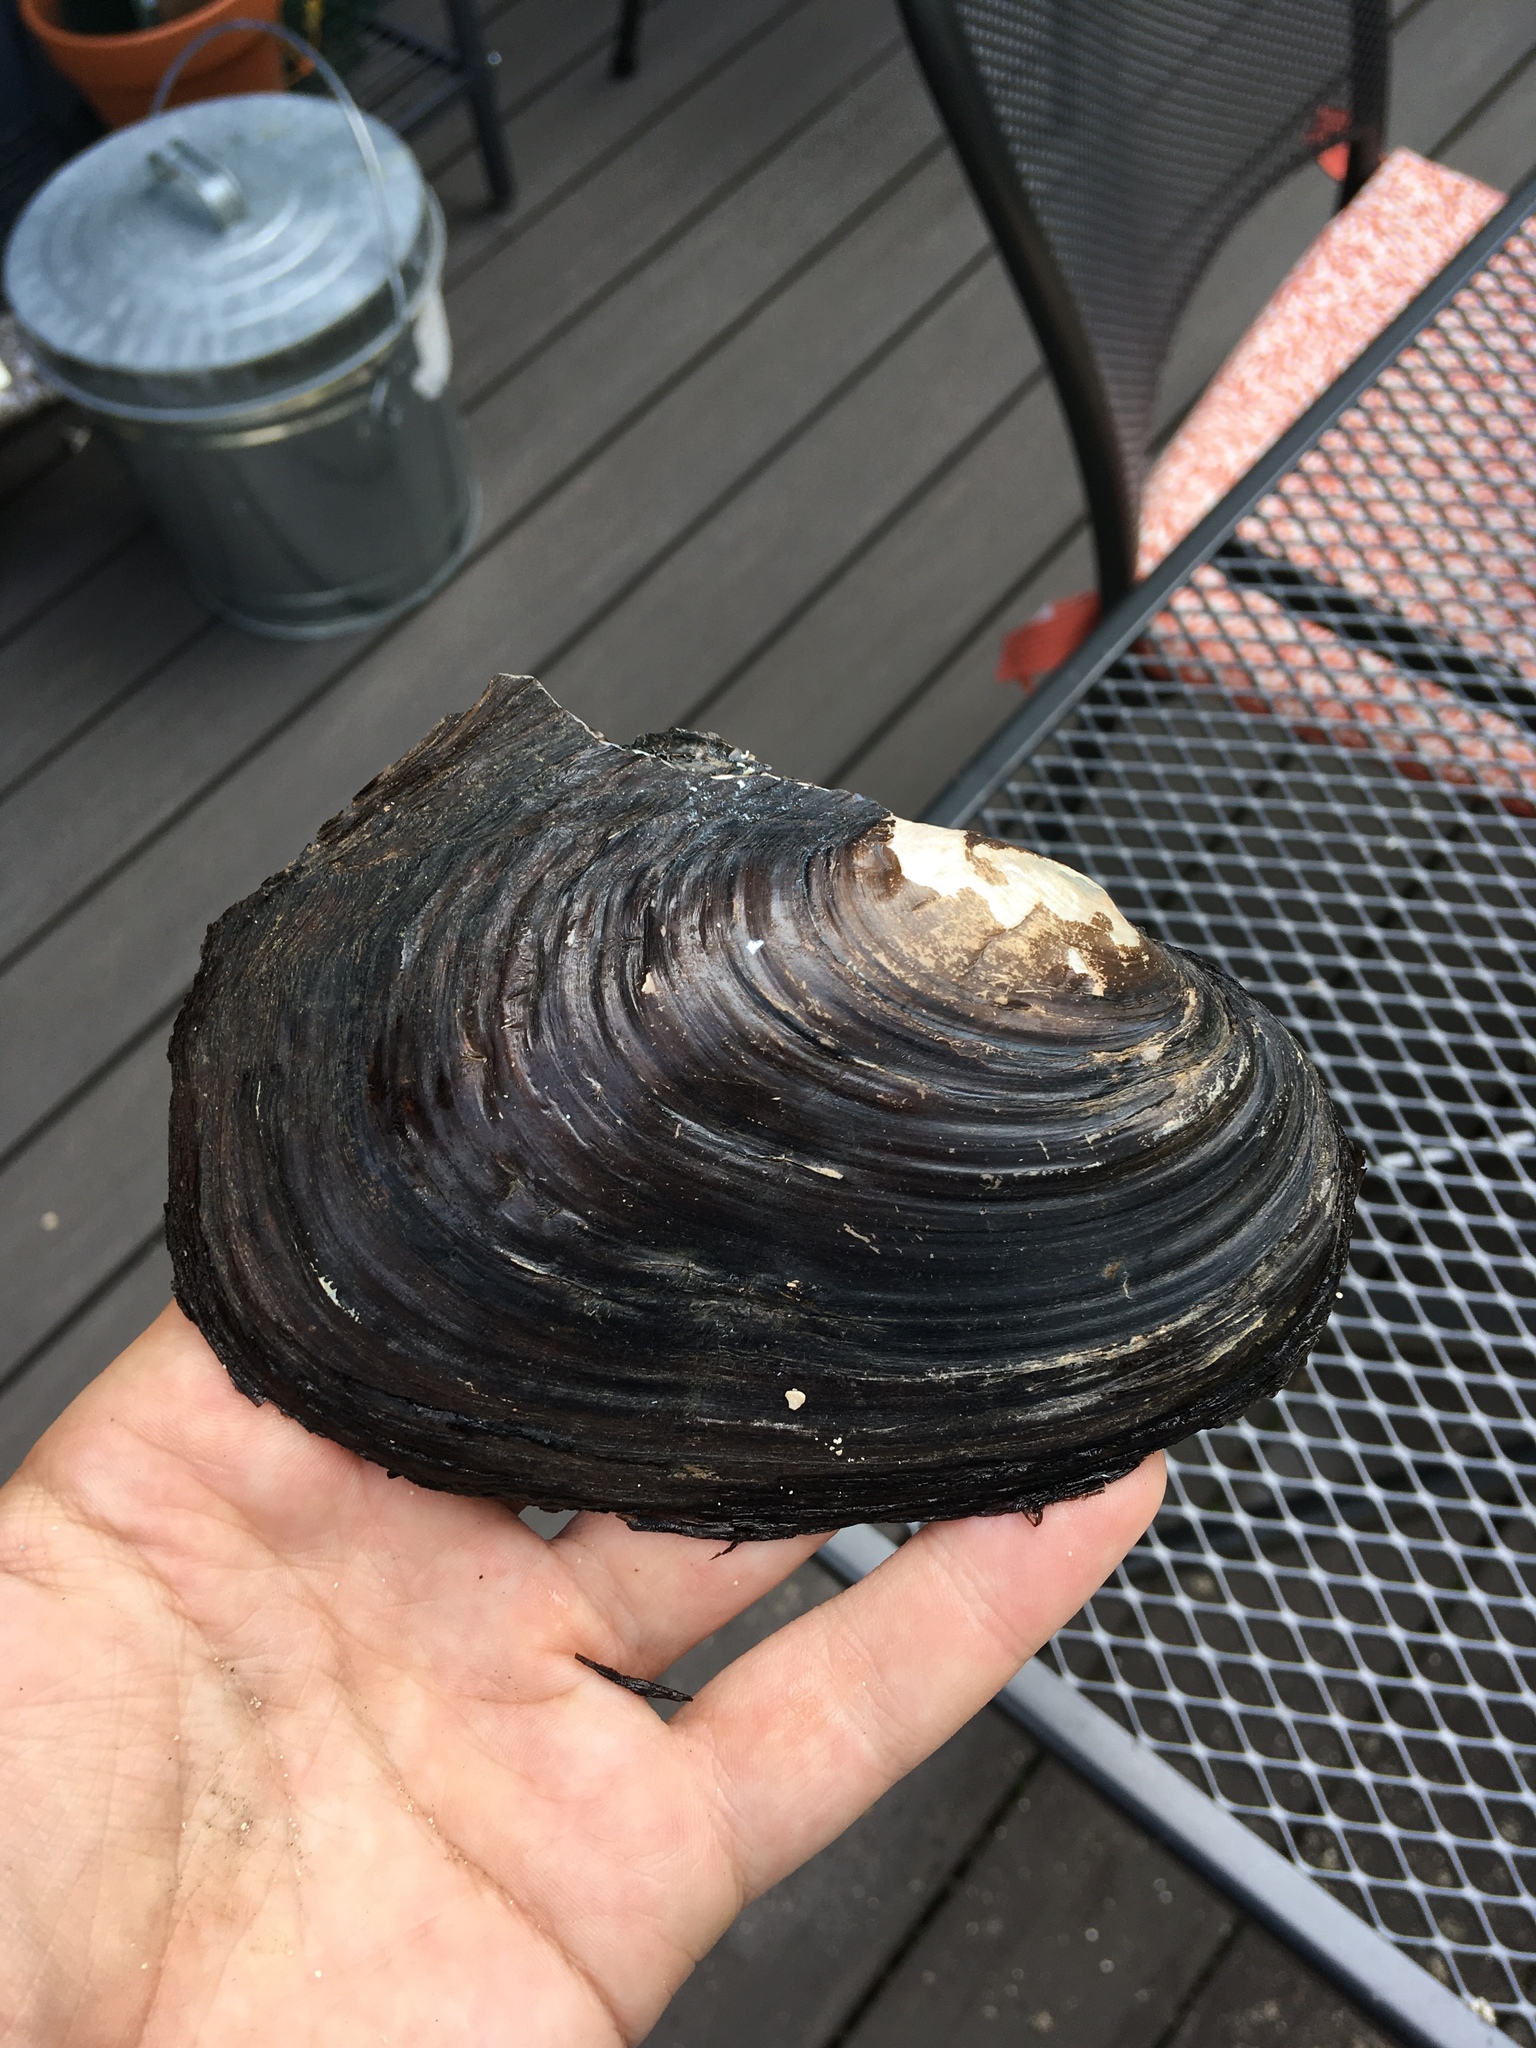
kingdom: Animalia
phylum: Mollusca
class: Bivalvia
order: Unionida
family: Unionidae
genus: Potamilus
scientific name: Potamilus alatus
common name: Pink heelsplitter
